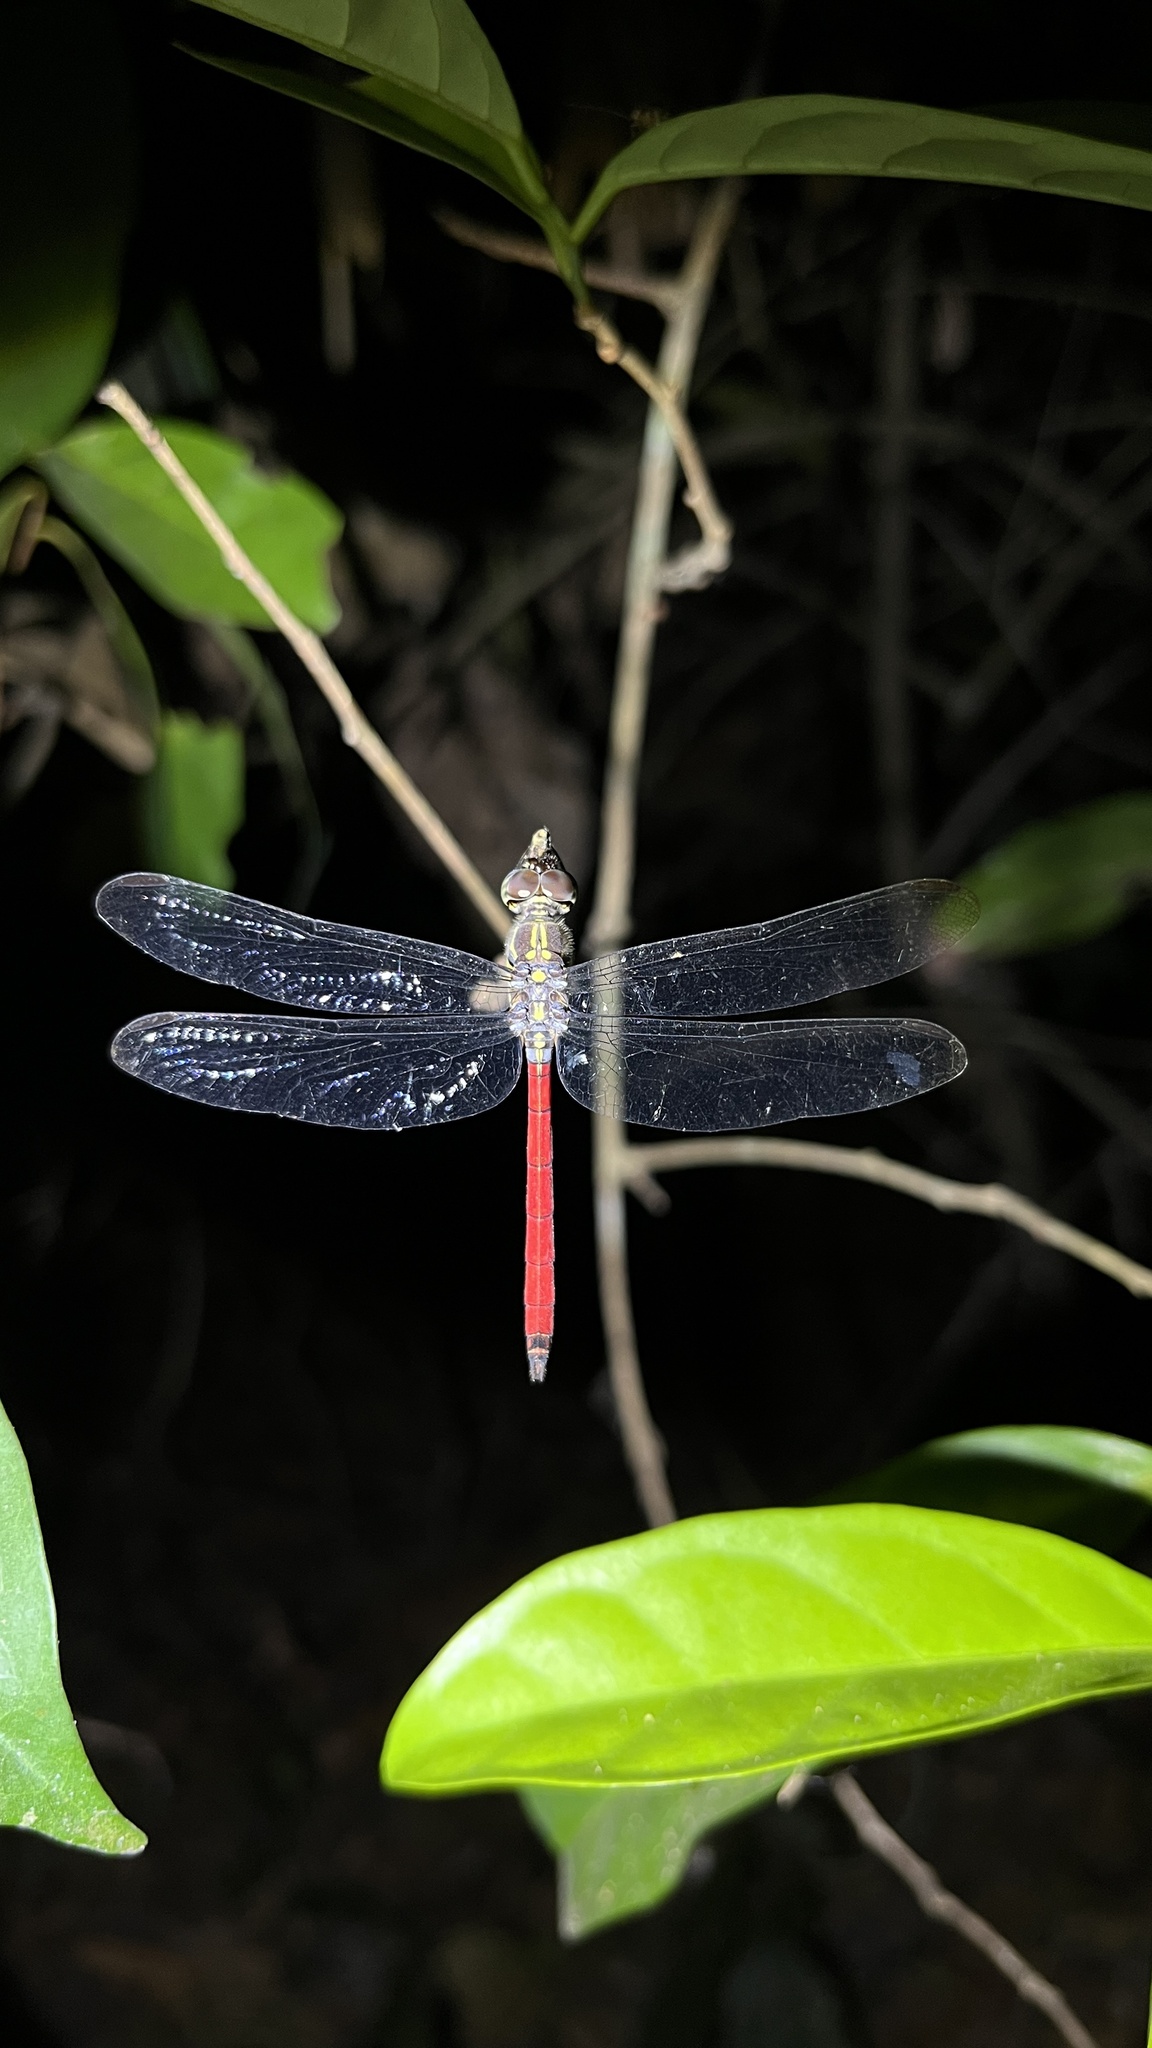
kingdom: Animalia
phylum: Arthropoda
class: Insecta
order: Odonata
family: Libellulidae
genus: Lathrecista
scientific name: Lathrecista asiatica
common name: Scarlet grenadier
